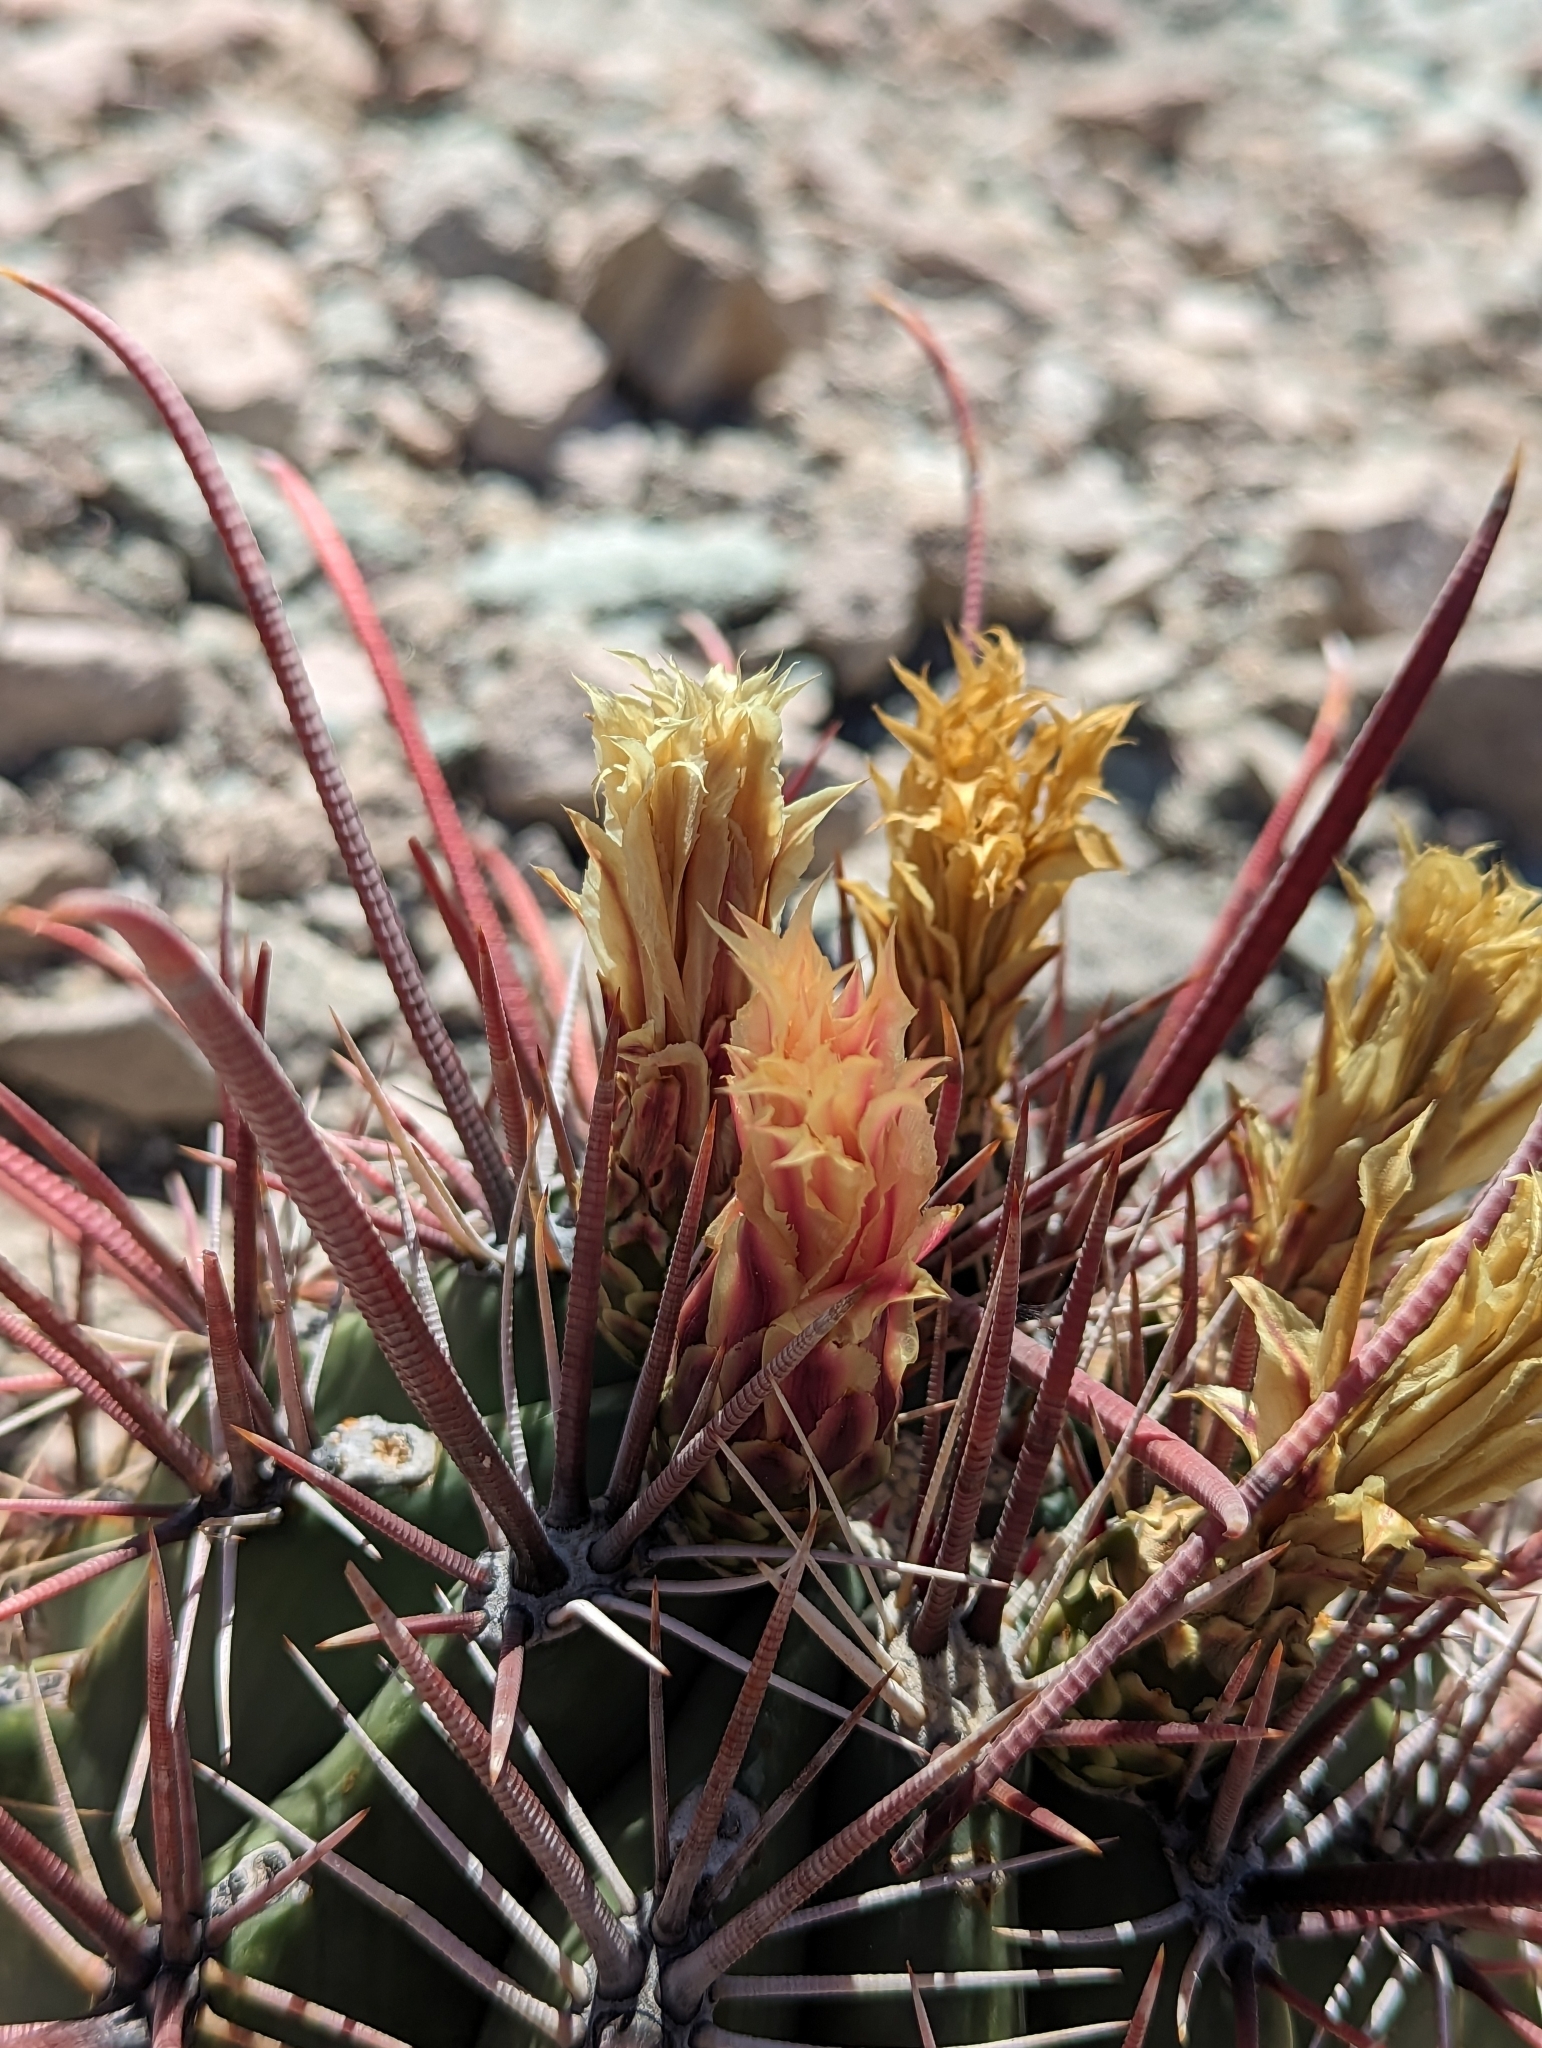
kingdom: Plantae
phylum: Tracheophyta
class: Magnoliopsida
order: Caryophyllales
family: Cactaceae
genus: Ferocactus
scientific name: Ferocactus emoryi
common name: Emory's barrel cactus
